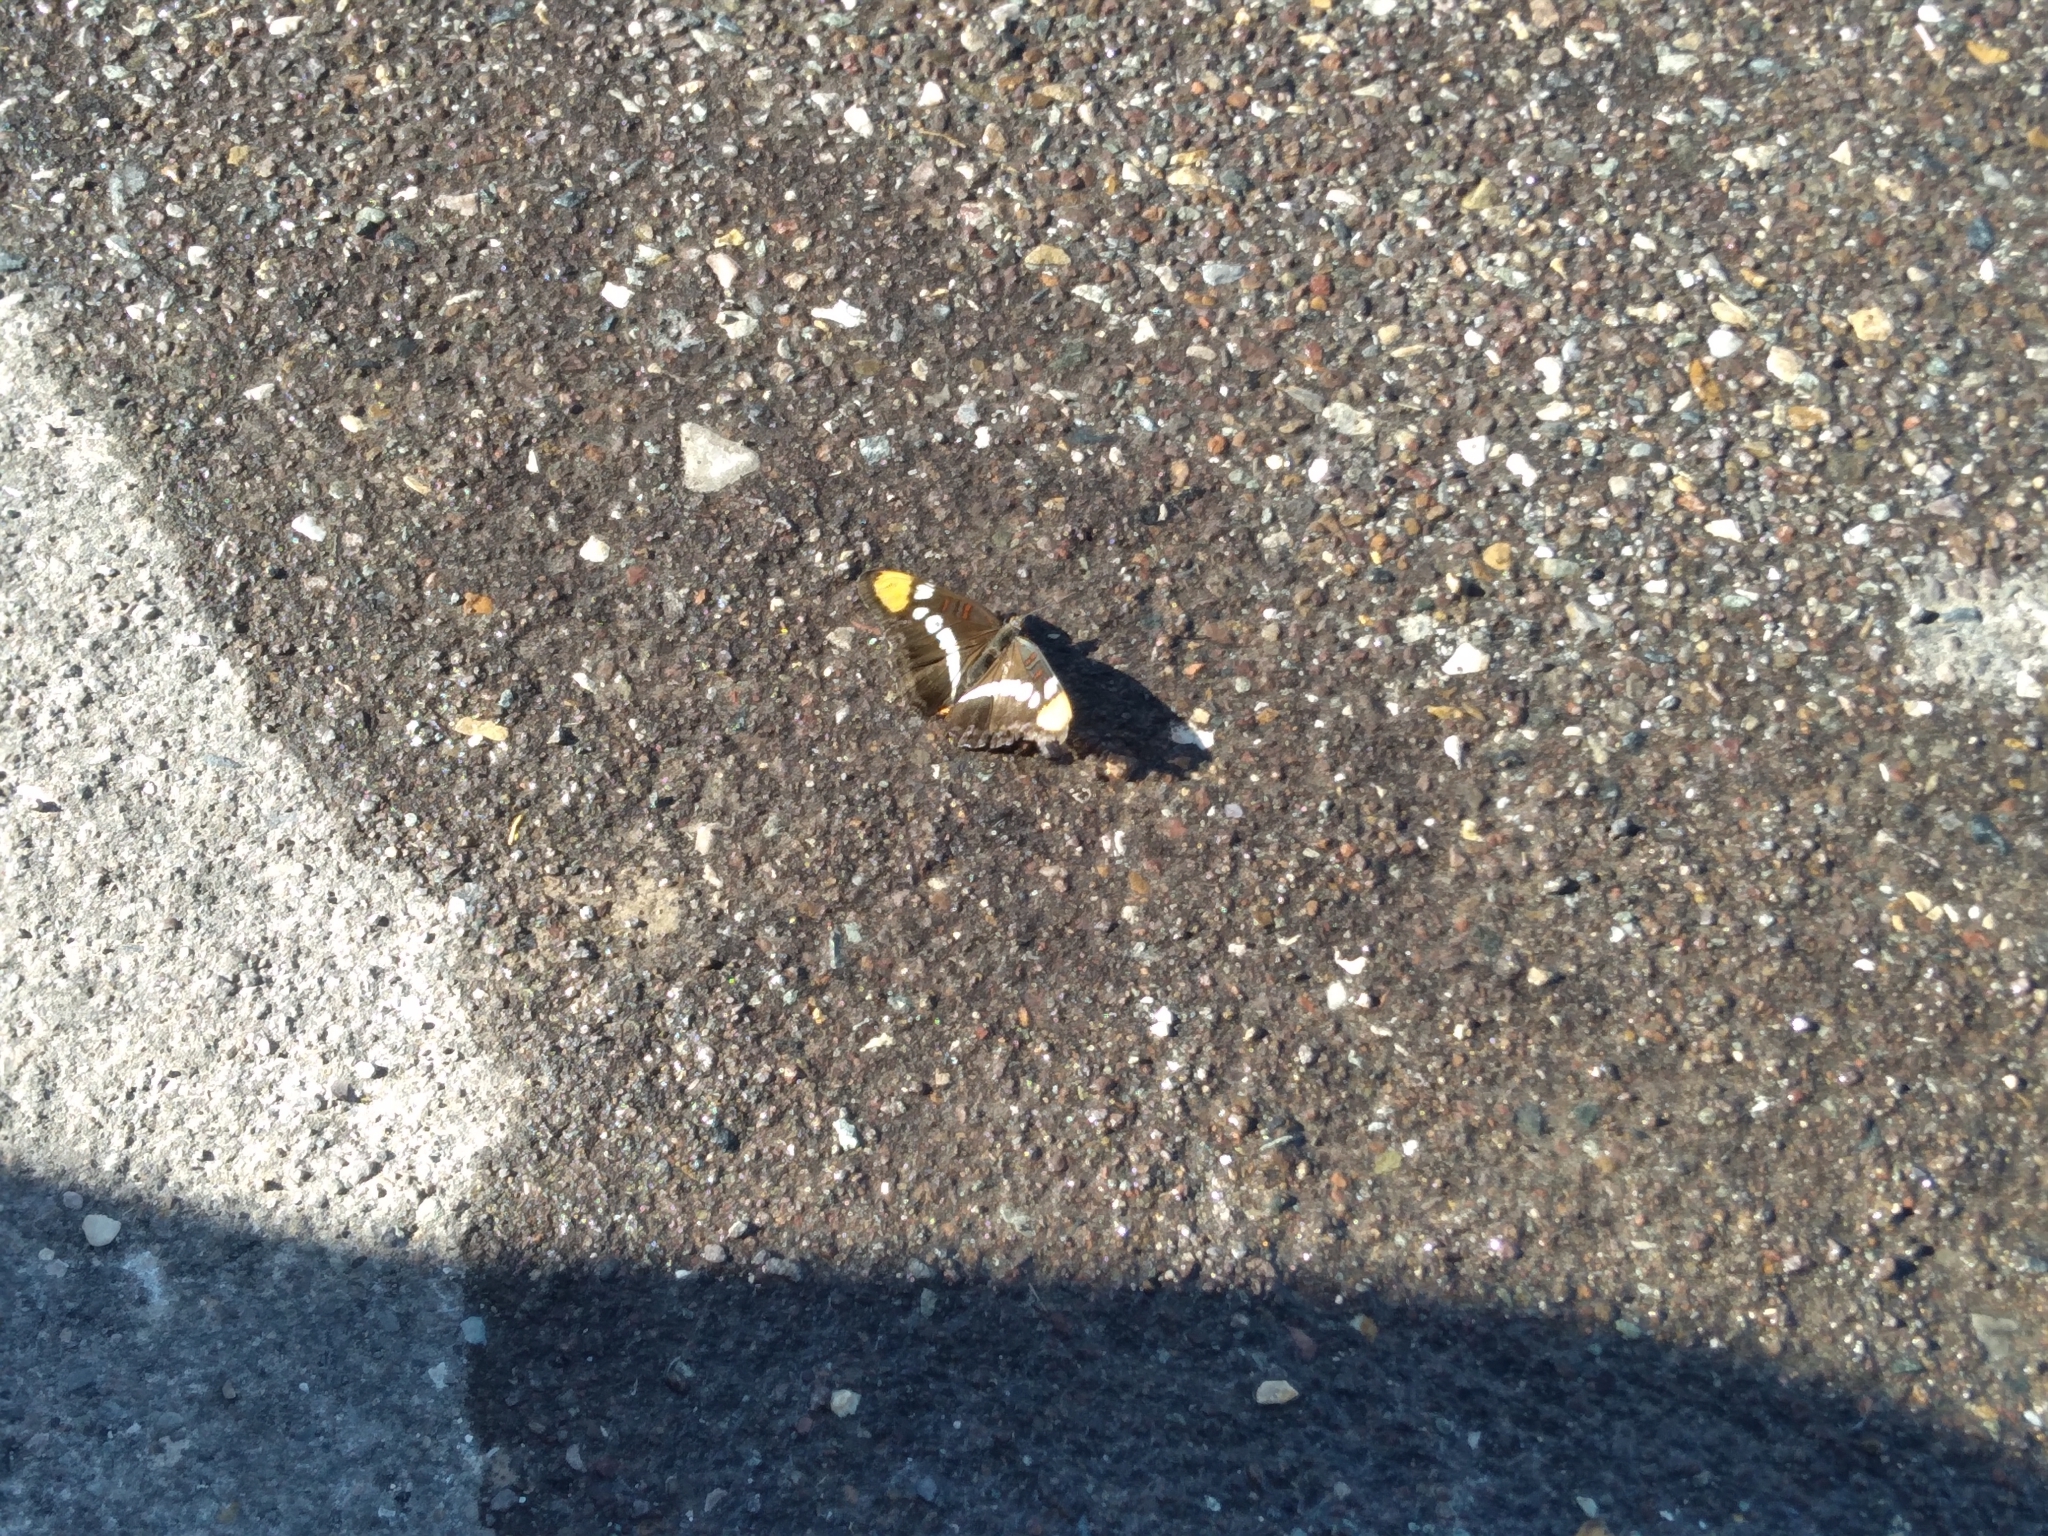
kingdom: Animalia
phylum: Arthropoda
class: Insecta
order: Lepidoptera
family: Nymphalidae
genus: Limenitis
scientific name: Limenitis bredowii
